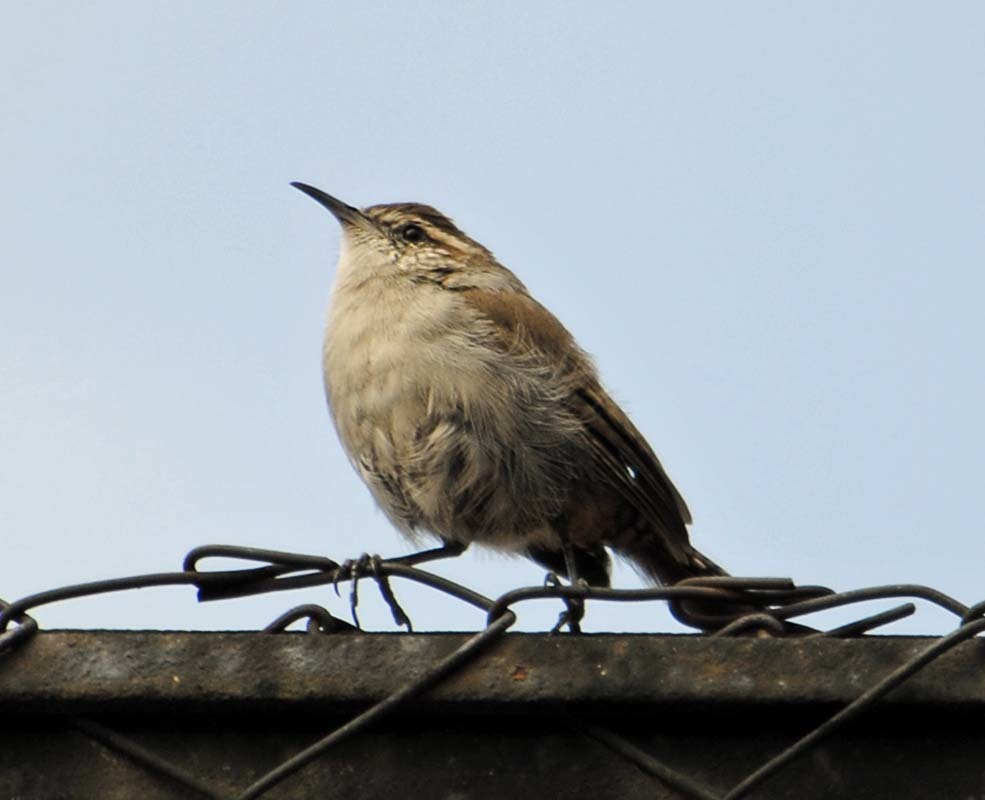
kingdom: Animalia
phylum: Chordata
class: Aves
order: Passeriformes
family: Troglodytidae
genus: Thryomanes
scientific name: Thryomanes bewickii
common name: Bewick's wren
